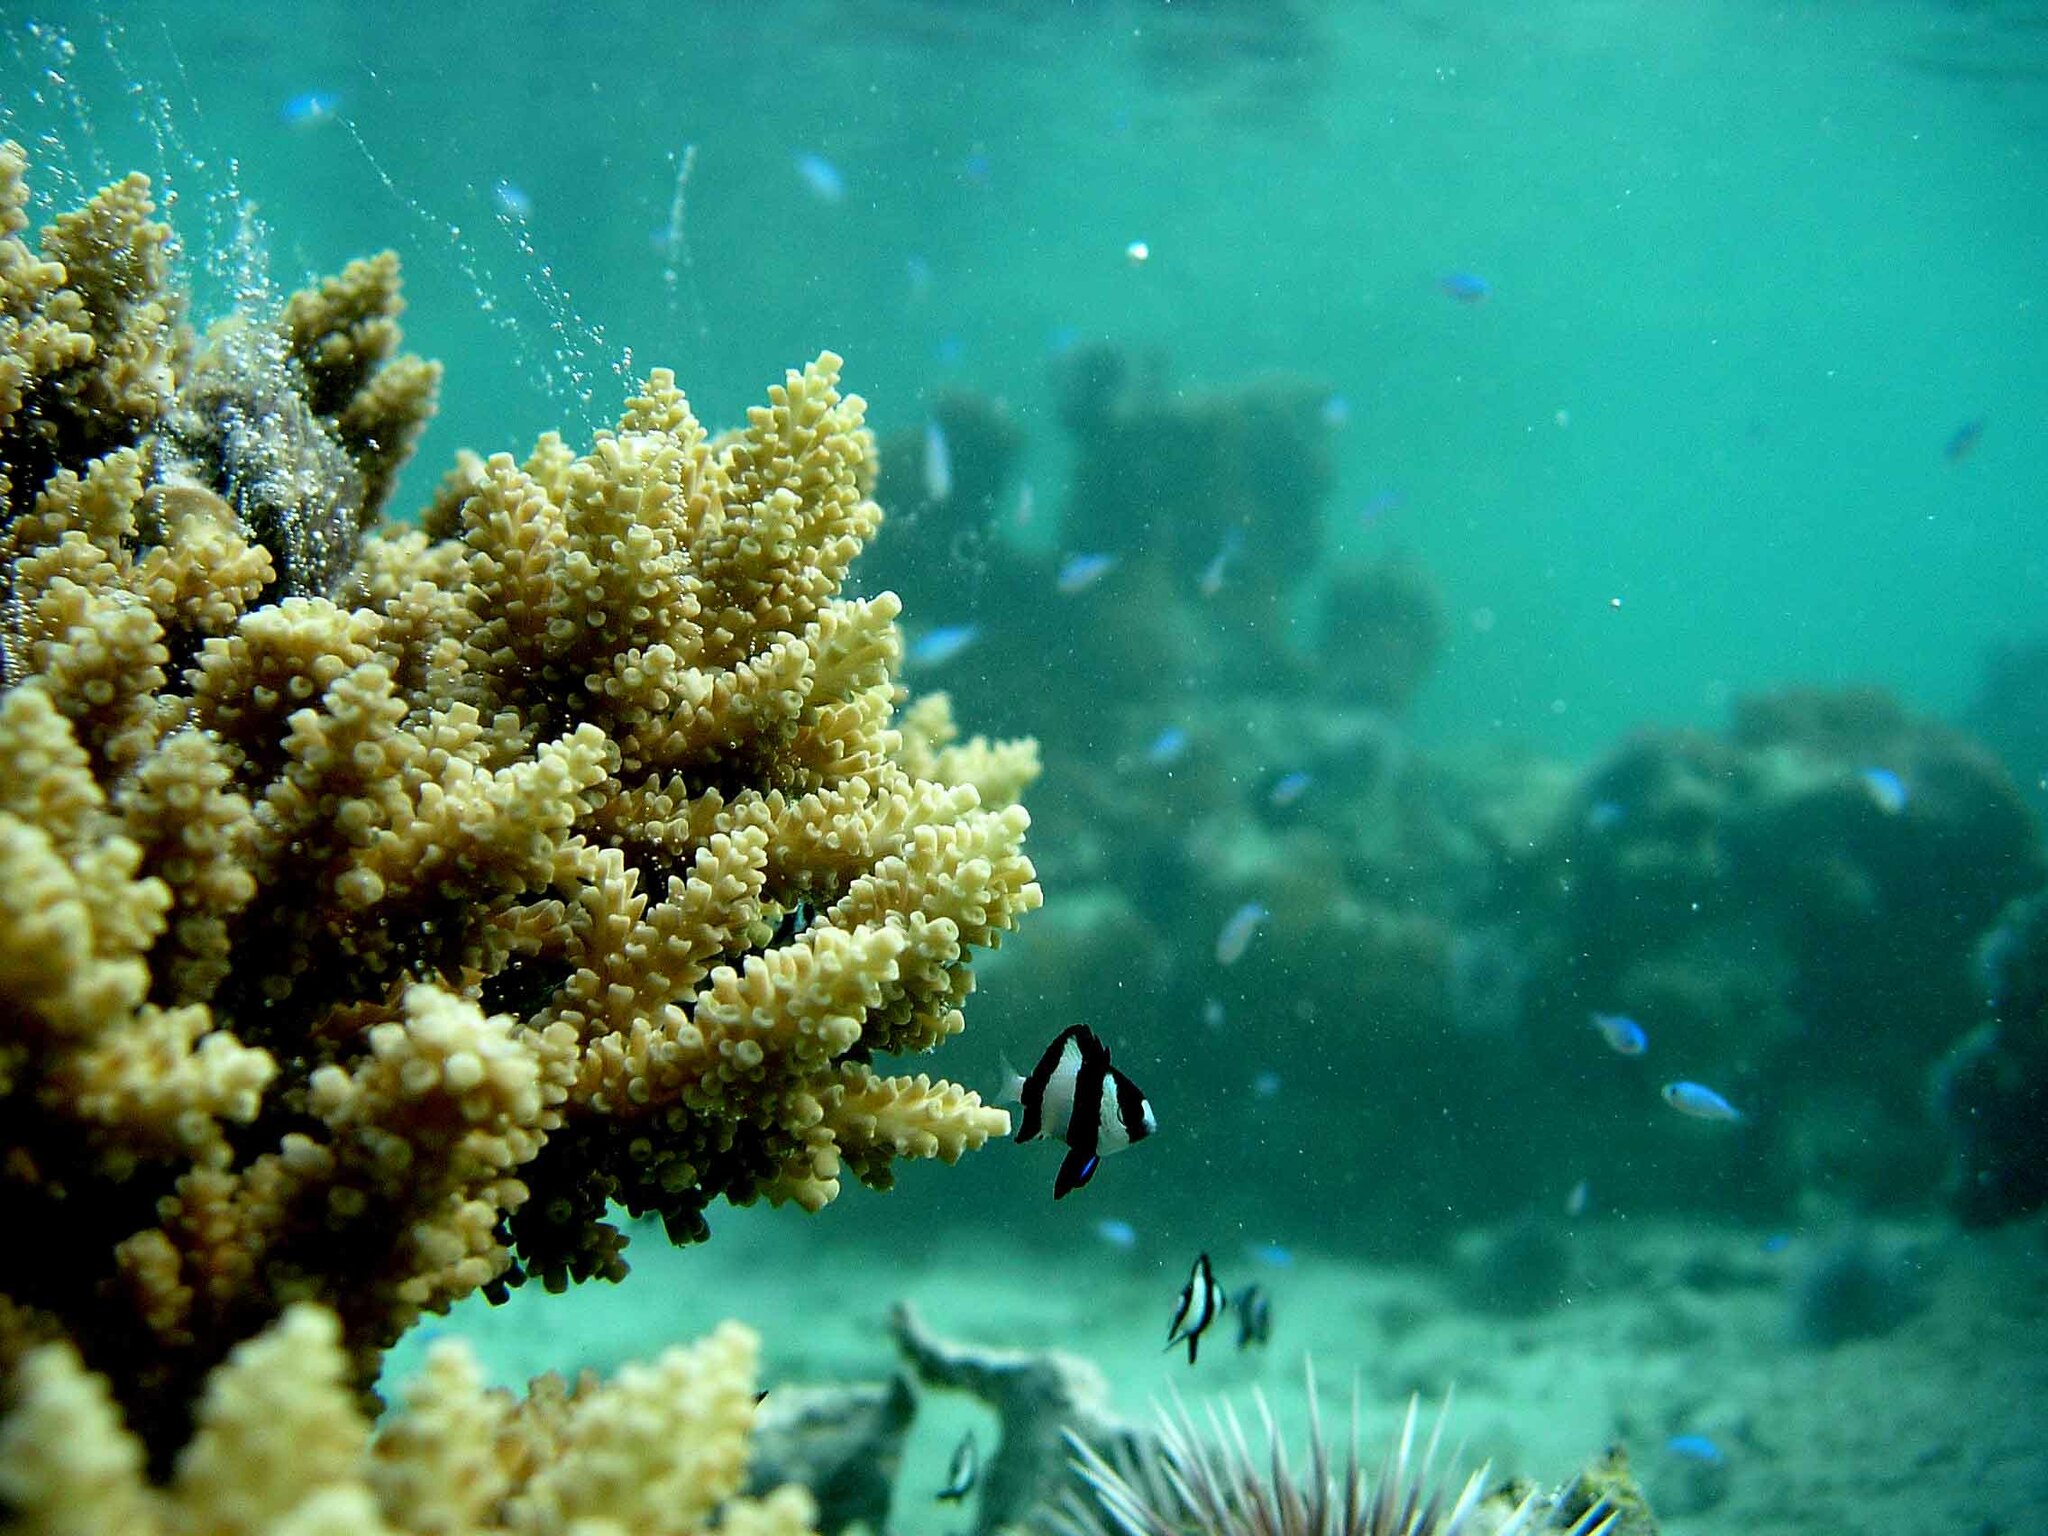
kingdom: Animalia
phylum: Chordata
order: Perciformes
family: Pomacentridae
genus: Dascyllus
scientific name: Dascyllus aruanus
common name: Humbug dascyllus
